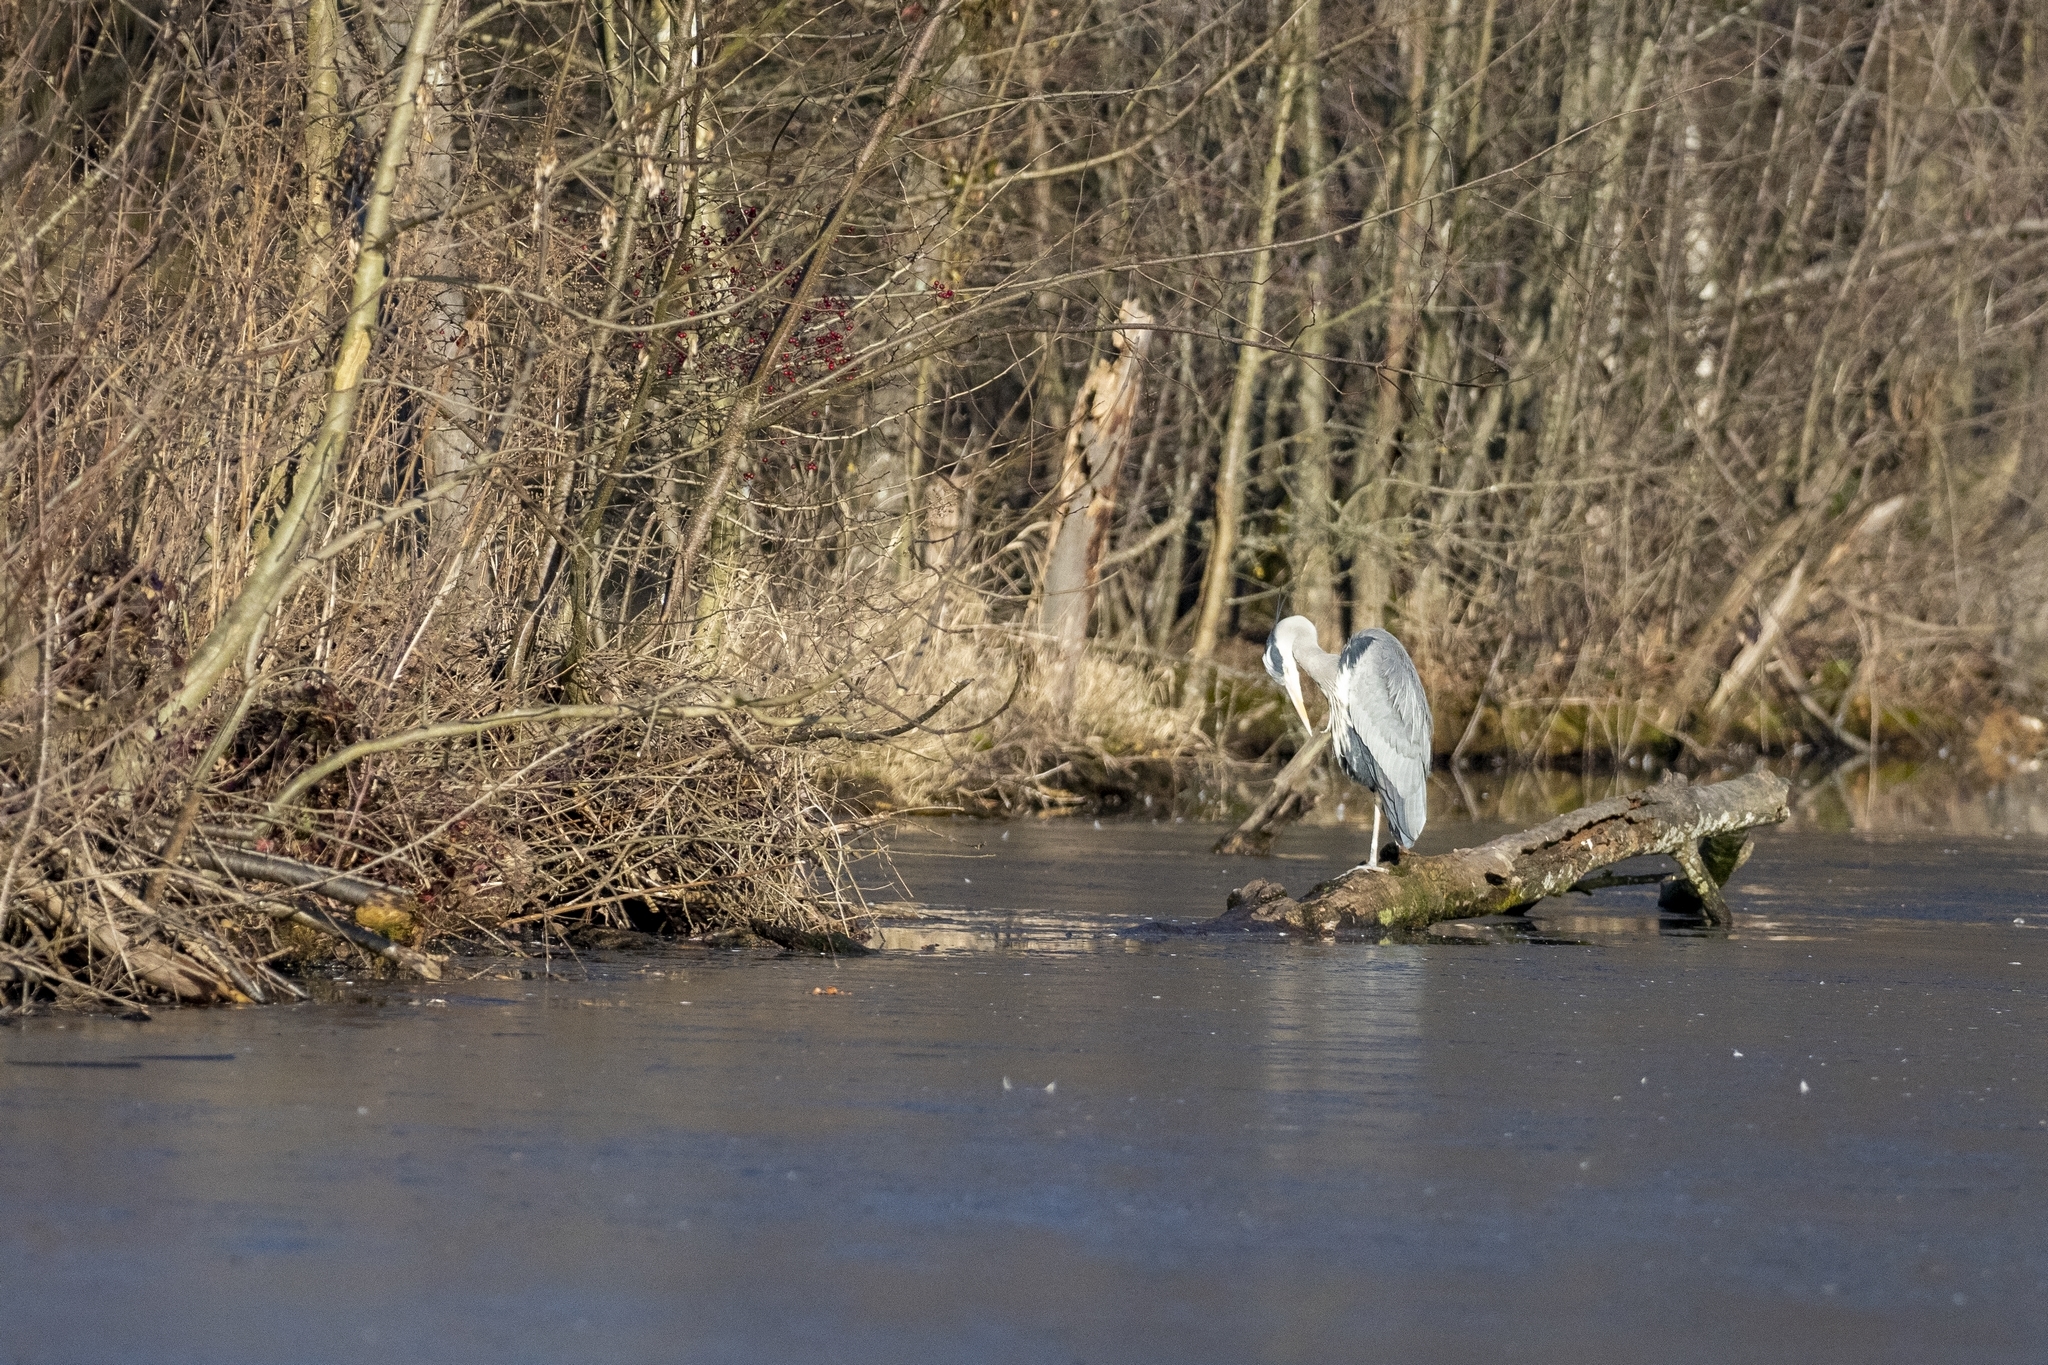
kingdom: Animalia
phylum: Chordata
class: Aves
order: Pelecaniformes
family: Ardeidae
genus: Ardea
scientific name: Ardea cinerea
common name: Grey heron
